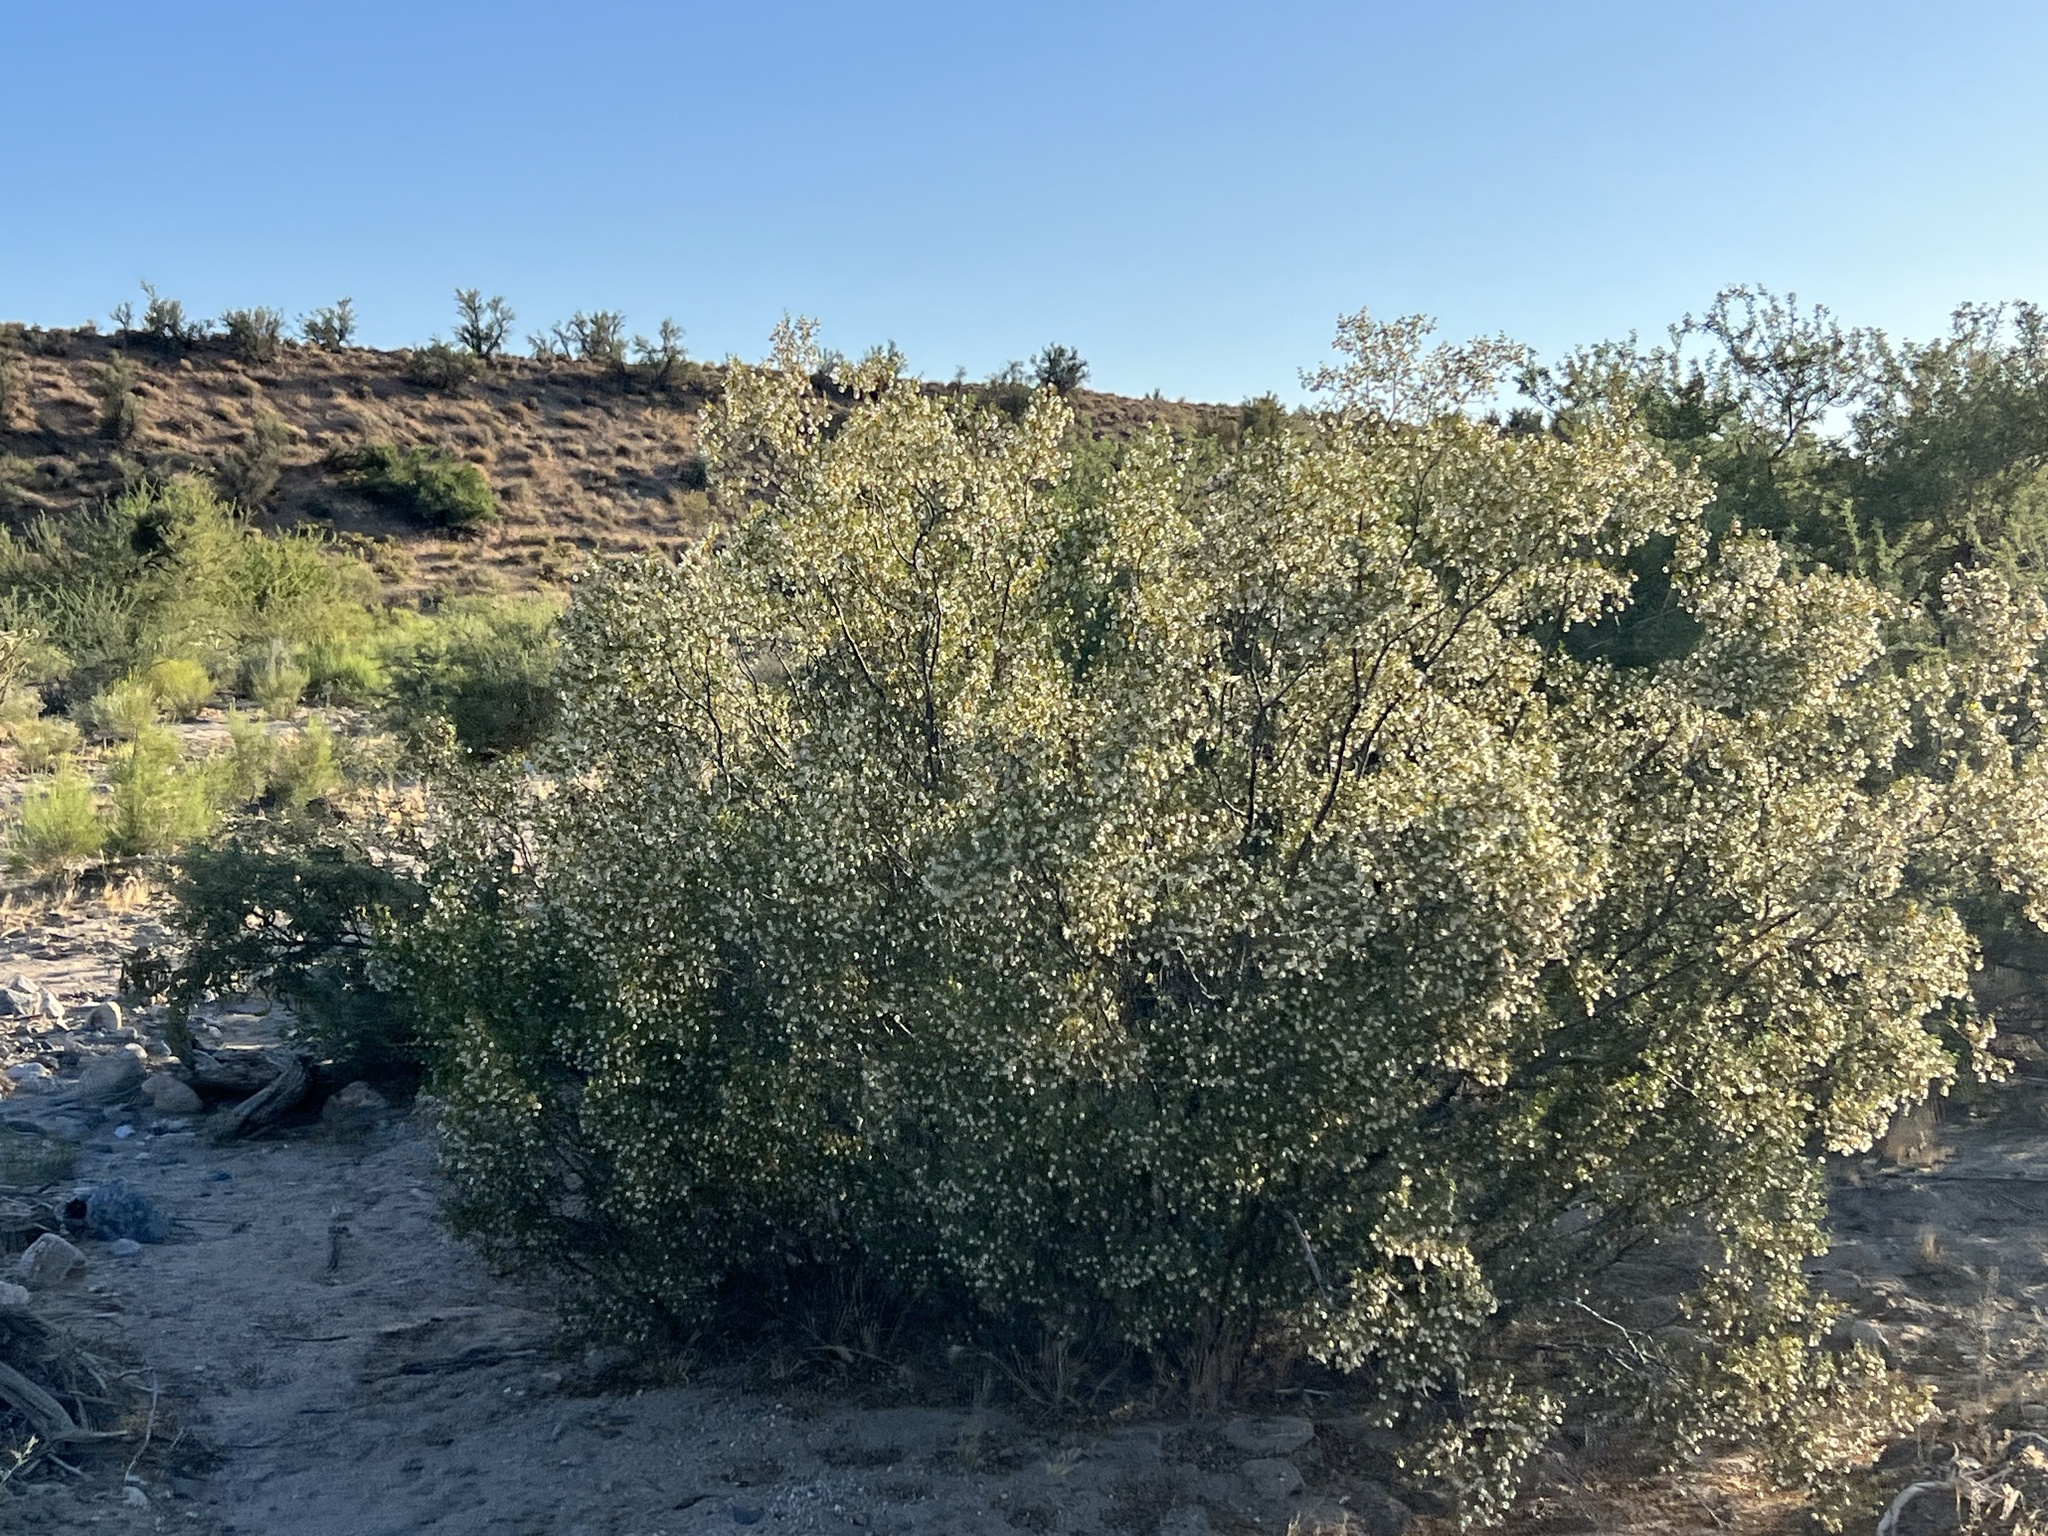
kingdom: Plantae
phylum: Tracheophyta
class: Magnoliopsida
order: Zygophyllales
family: Zygophyllaceae
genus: Larrea
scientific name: Larrea tridentata
